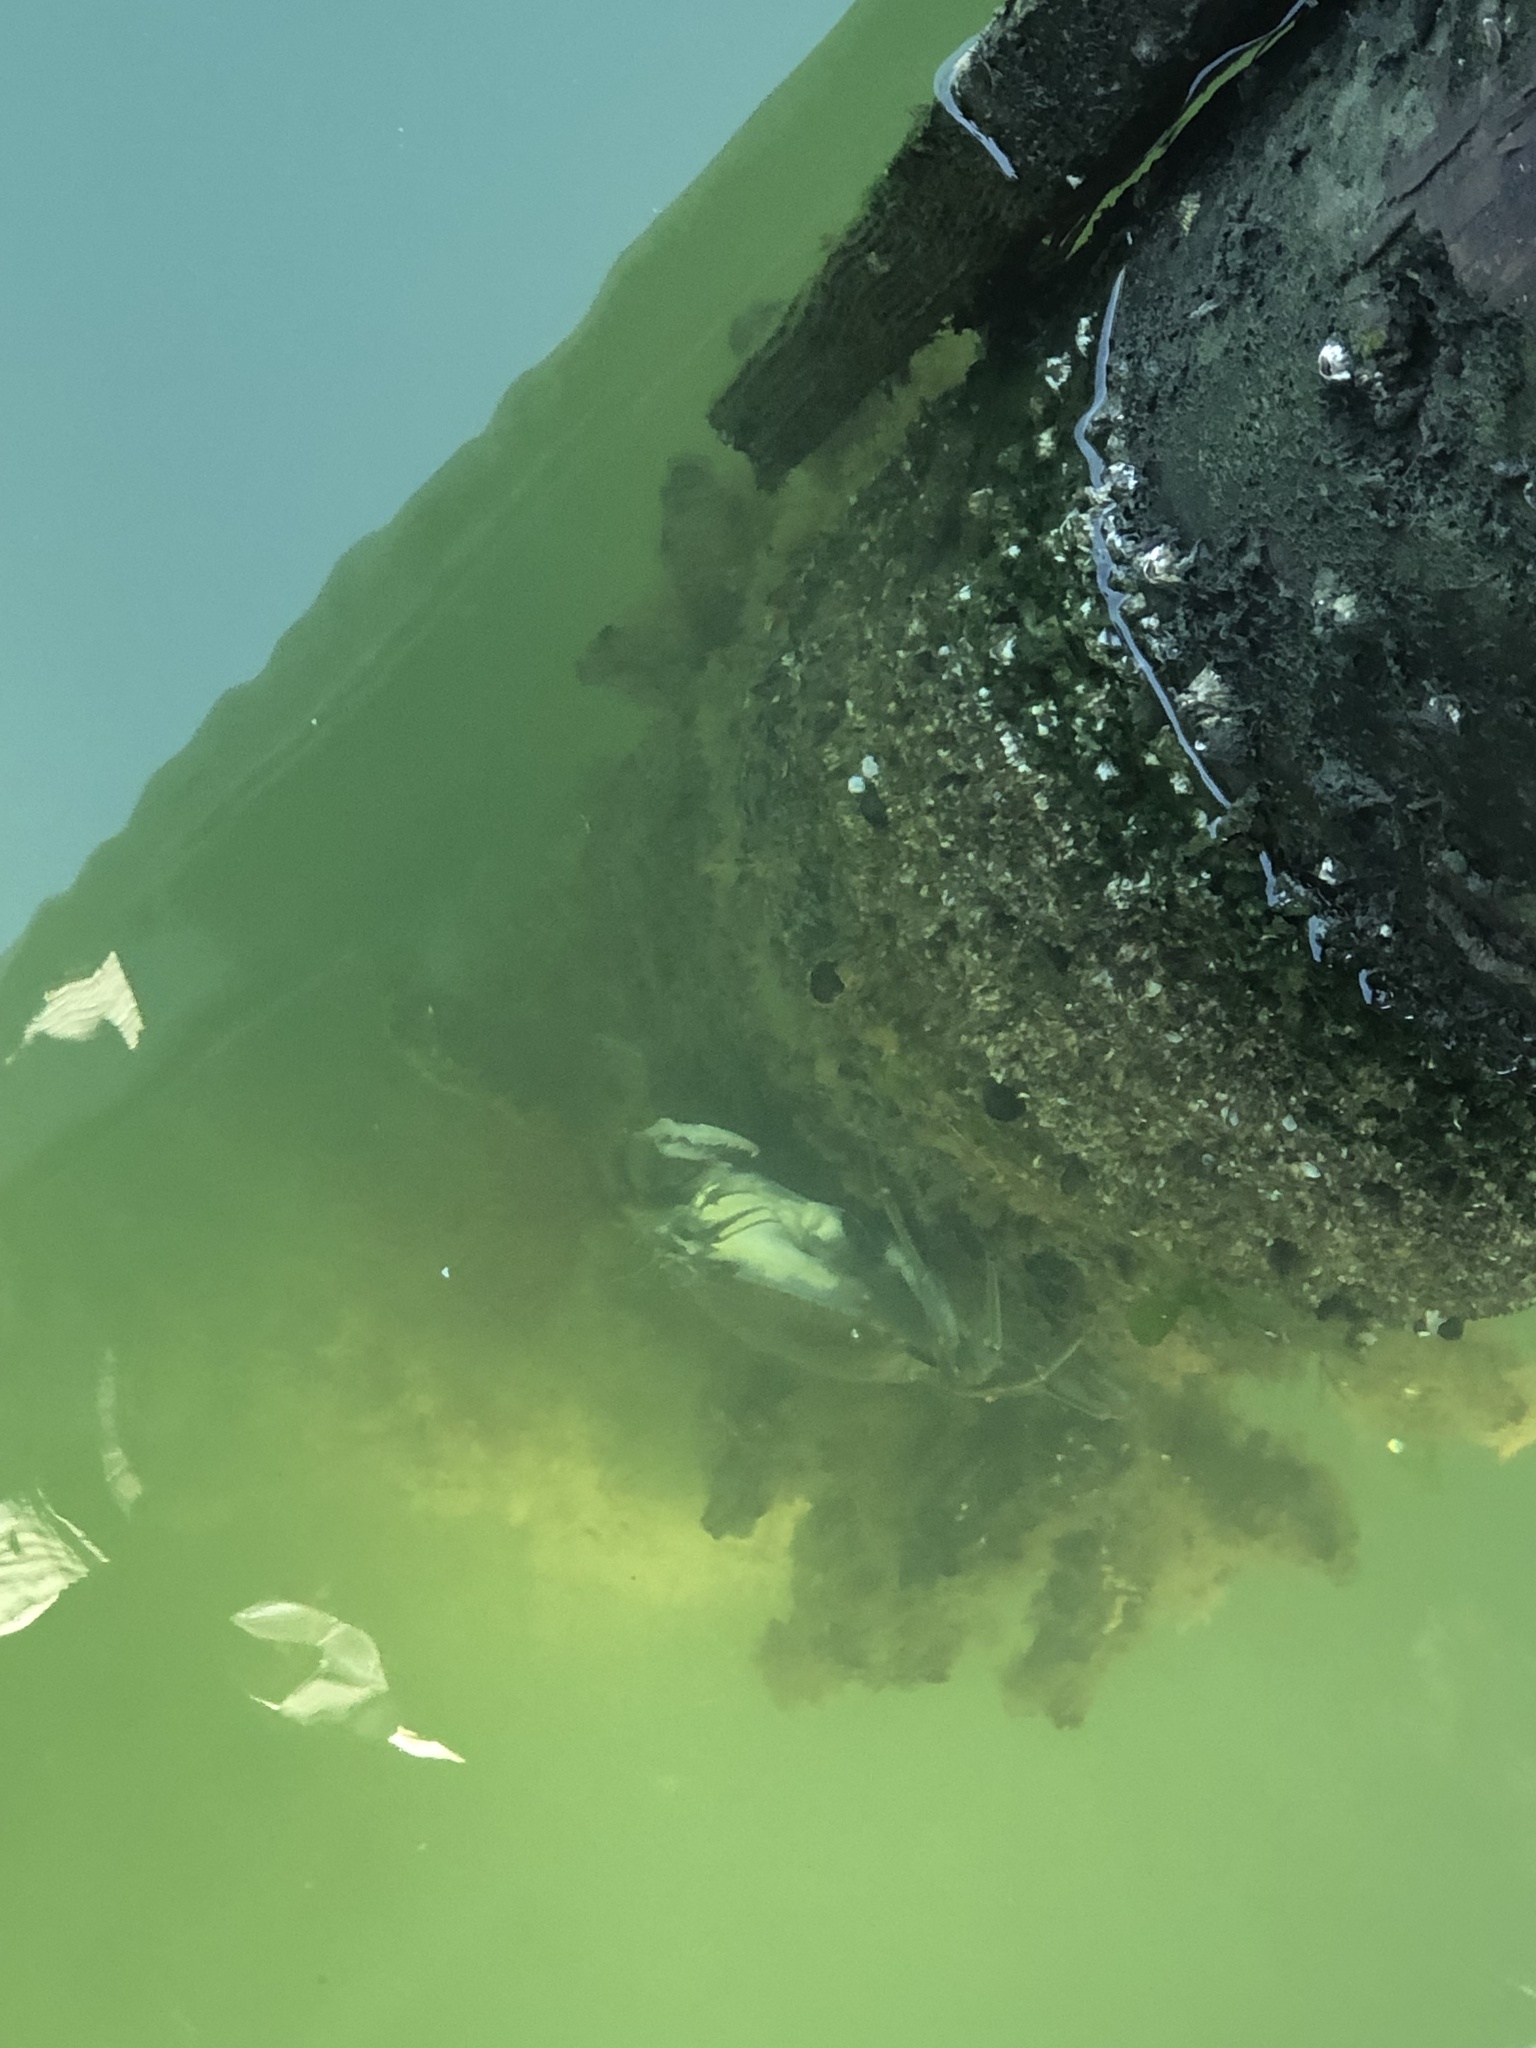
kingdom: Animalia
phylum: Arthropoda
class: Malacostraca
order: Decapoda
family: Portunidae
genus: Callinectes
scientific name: Callinectes sapidus
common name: Blue crab
